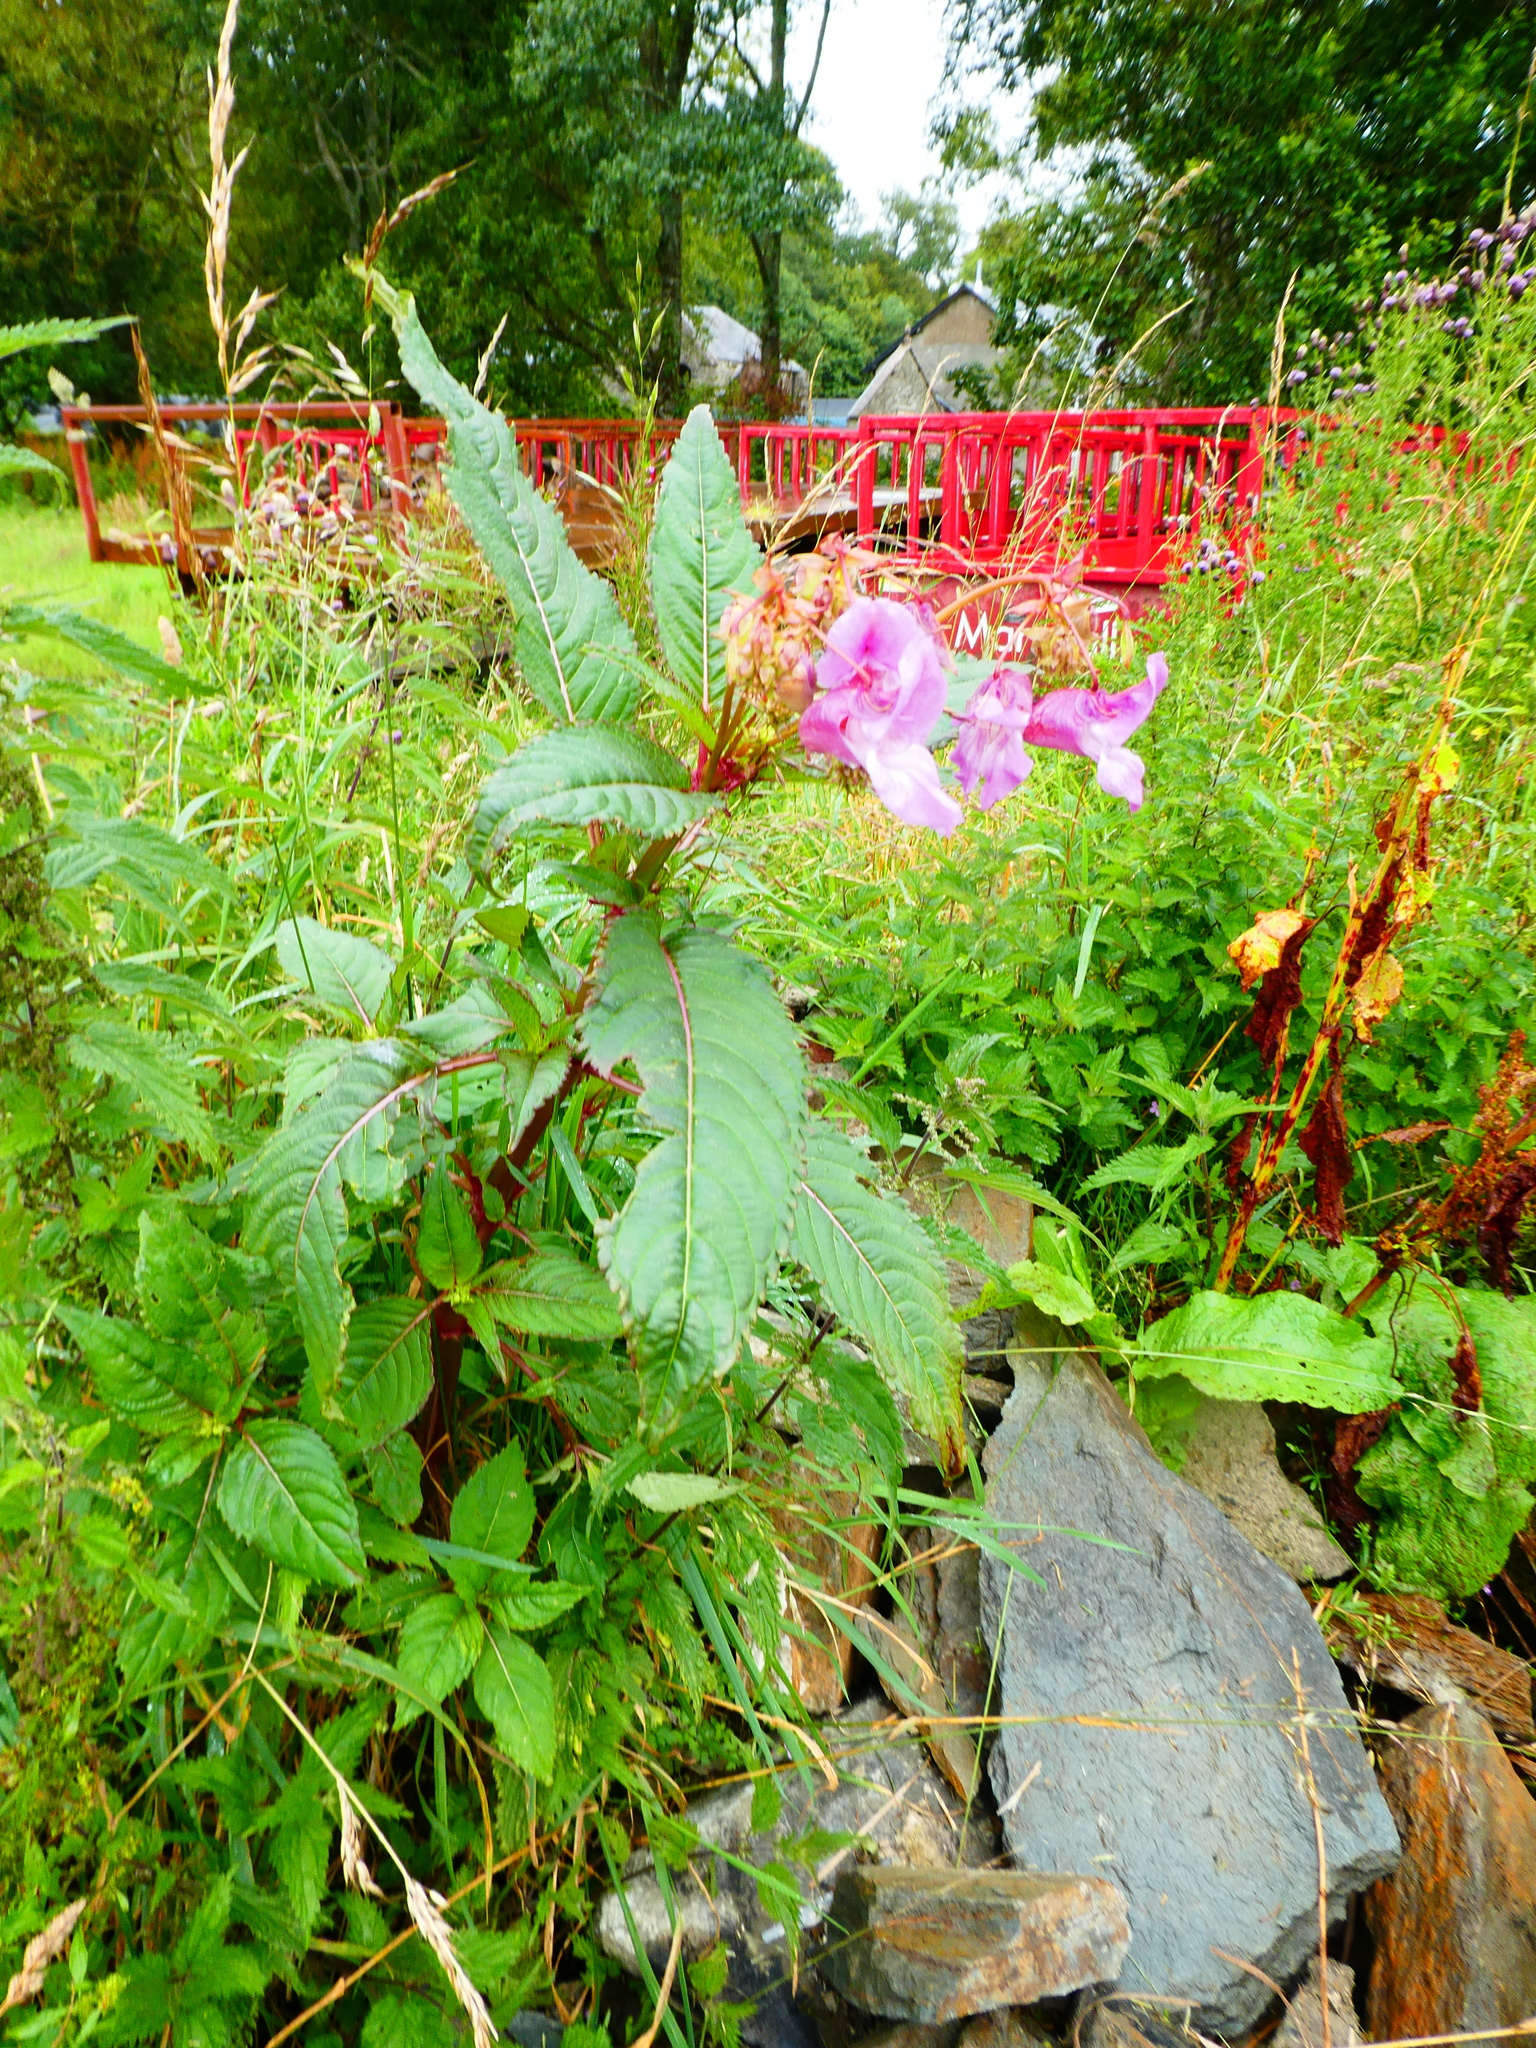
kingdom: Plantae
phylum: Tracheophyta
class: Magnoliopsida
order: Ericales
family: Balsaminaceae
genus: Impatiens
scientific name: Impatiens glandulifera
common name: Himalayan balsam
